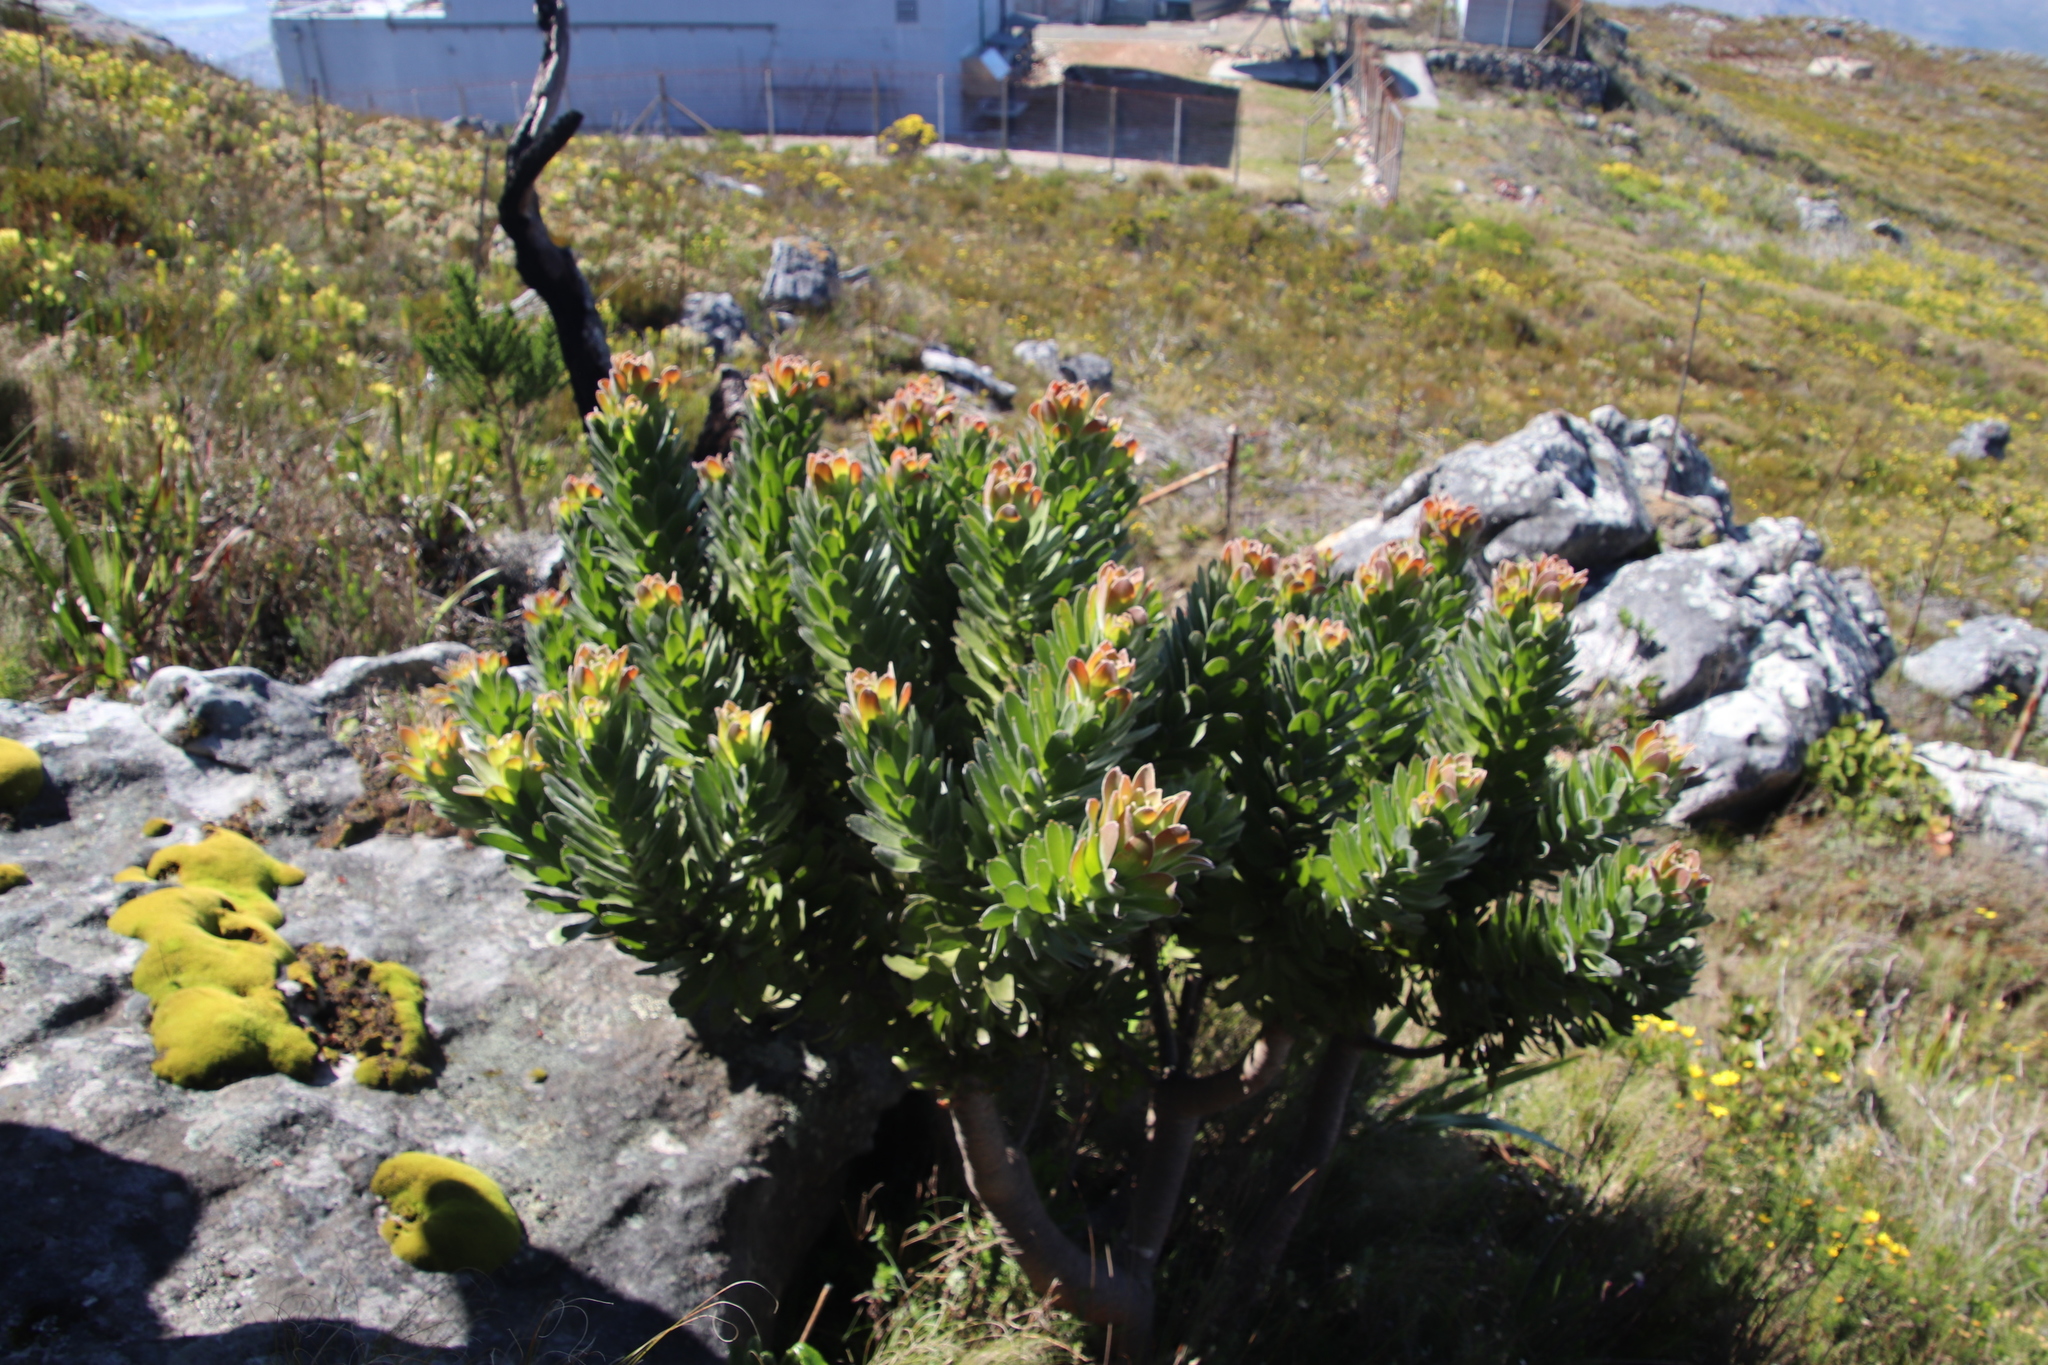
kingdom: Plantae
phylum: Tracheophyta
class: Magnoliopsida
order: Proteales
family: Proteaceae
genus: Mimetes
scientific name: Mimetes fimbriifolius
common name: Fringed bottlebrush
